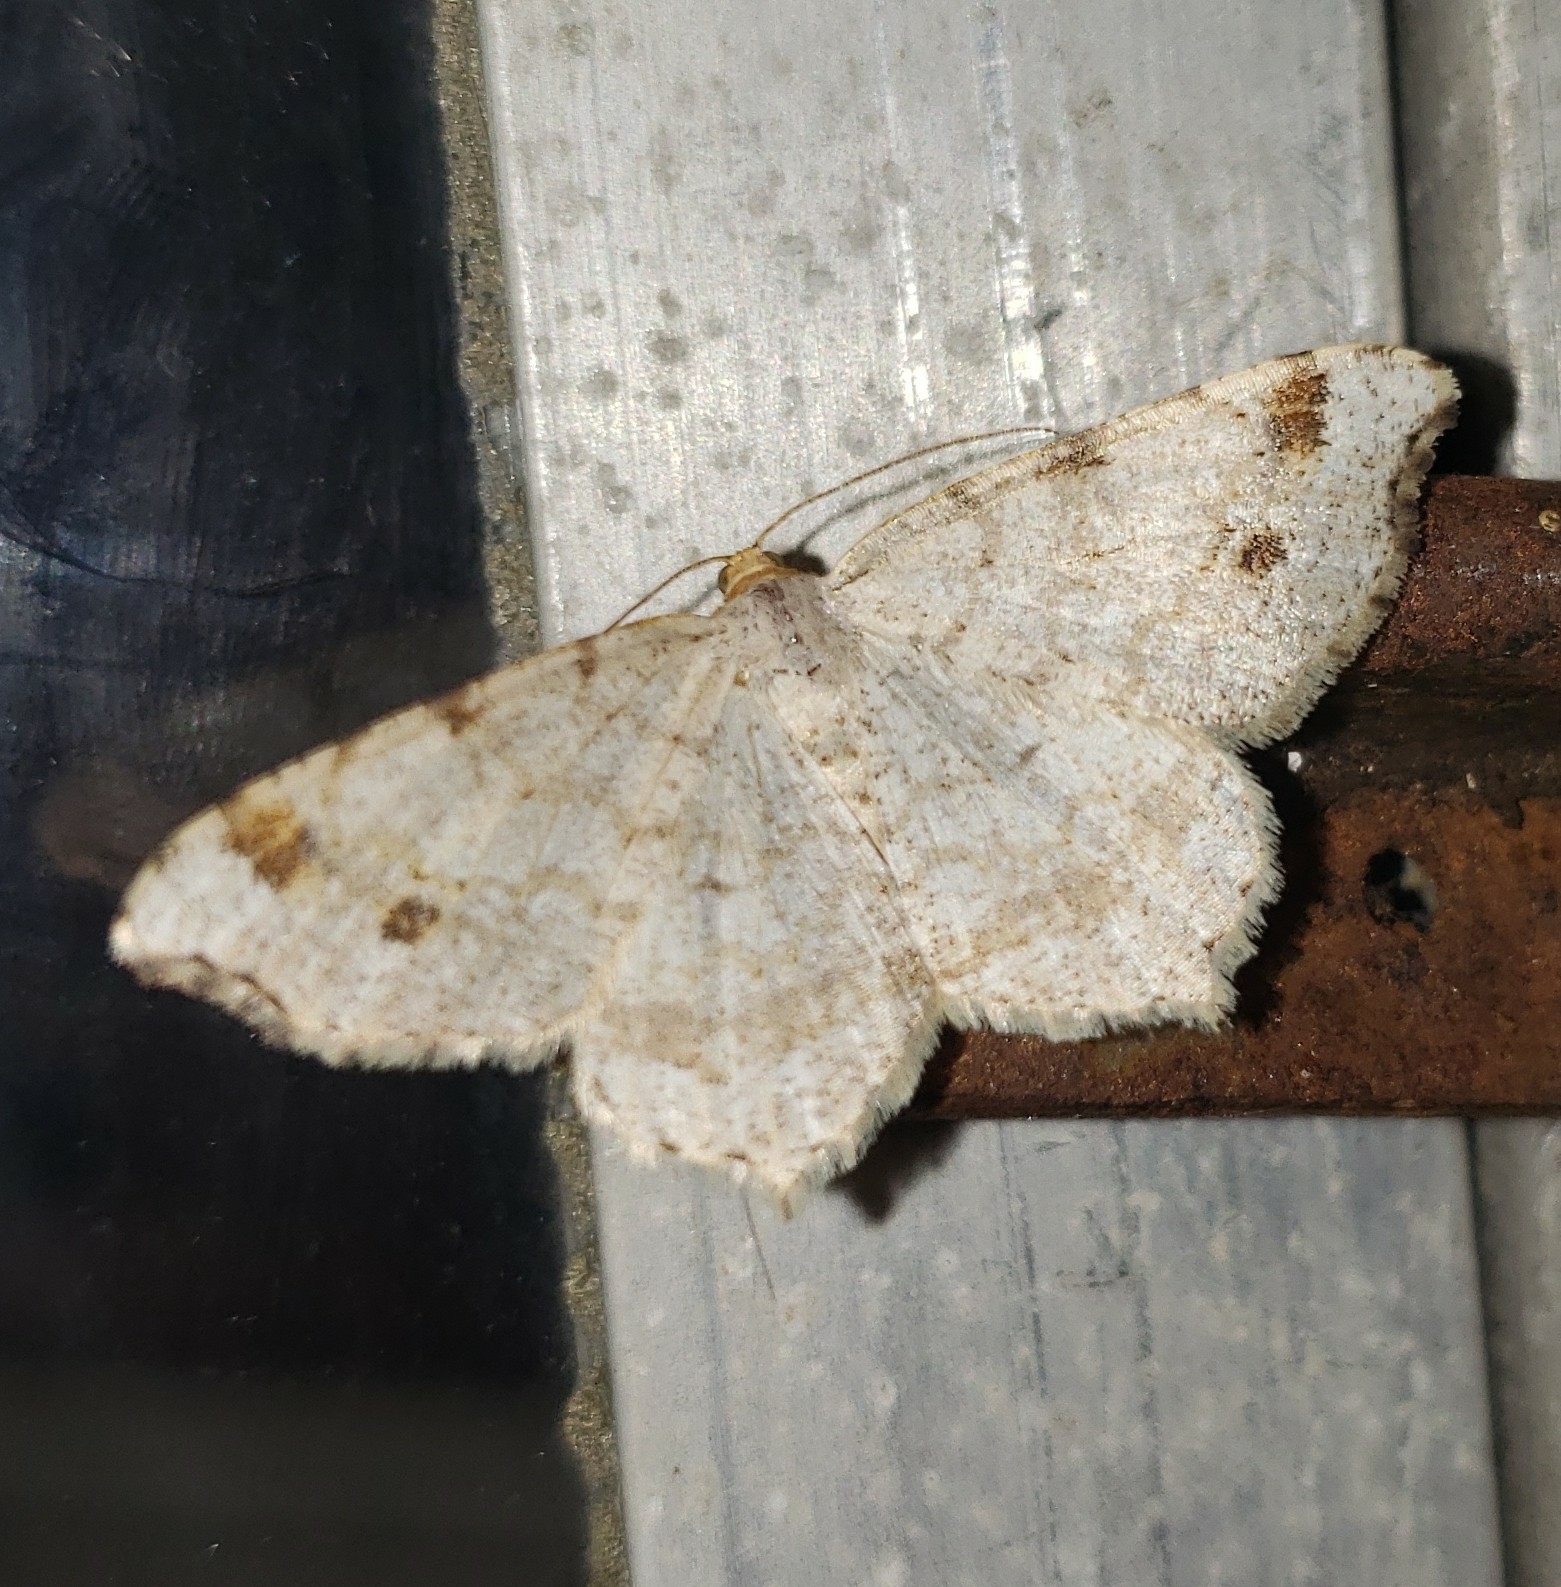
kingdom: Animalia
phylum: Arthropoda
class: Insecta
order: Lepidoptera
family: Geometridae
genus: Macaria
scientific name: Macaria bisignata
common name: Red-headed inchworm
